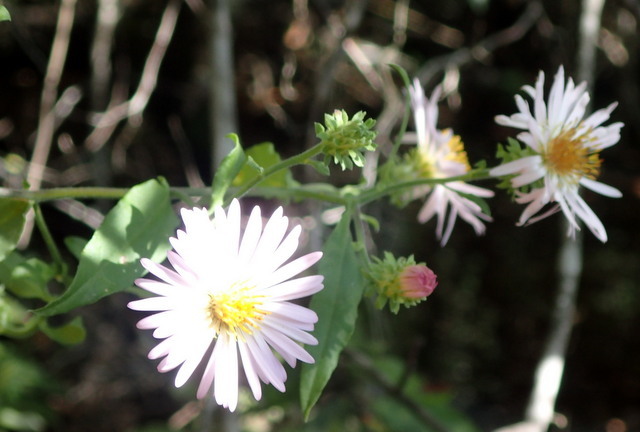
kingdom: Plantae
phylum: Tracheophyta
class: Magnoliopsida
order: Asterales
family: Asteraceae
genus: Ampelaster
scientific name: Ampelaster carolinianus
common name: Climbing aster
